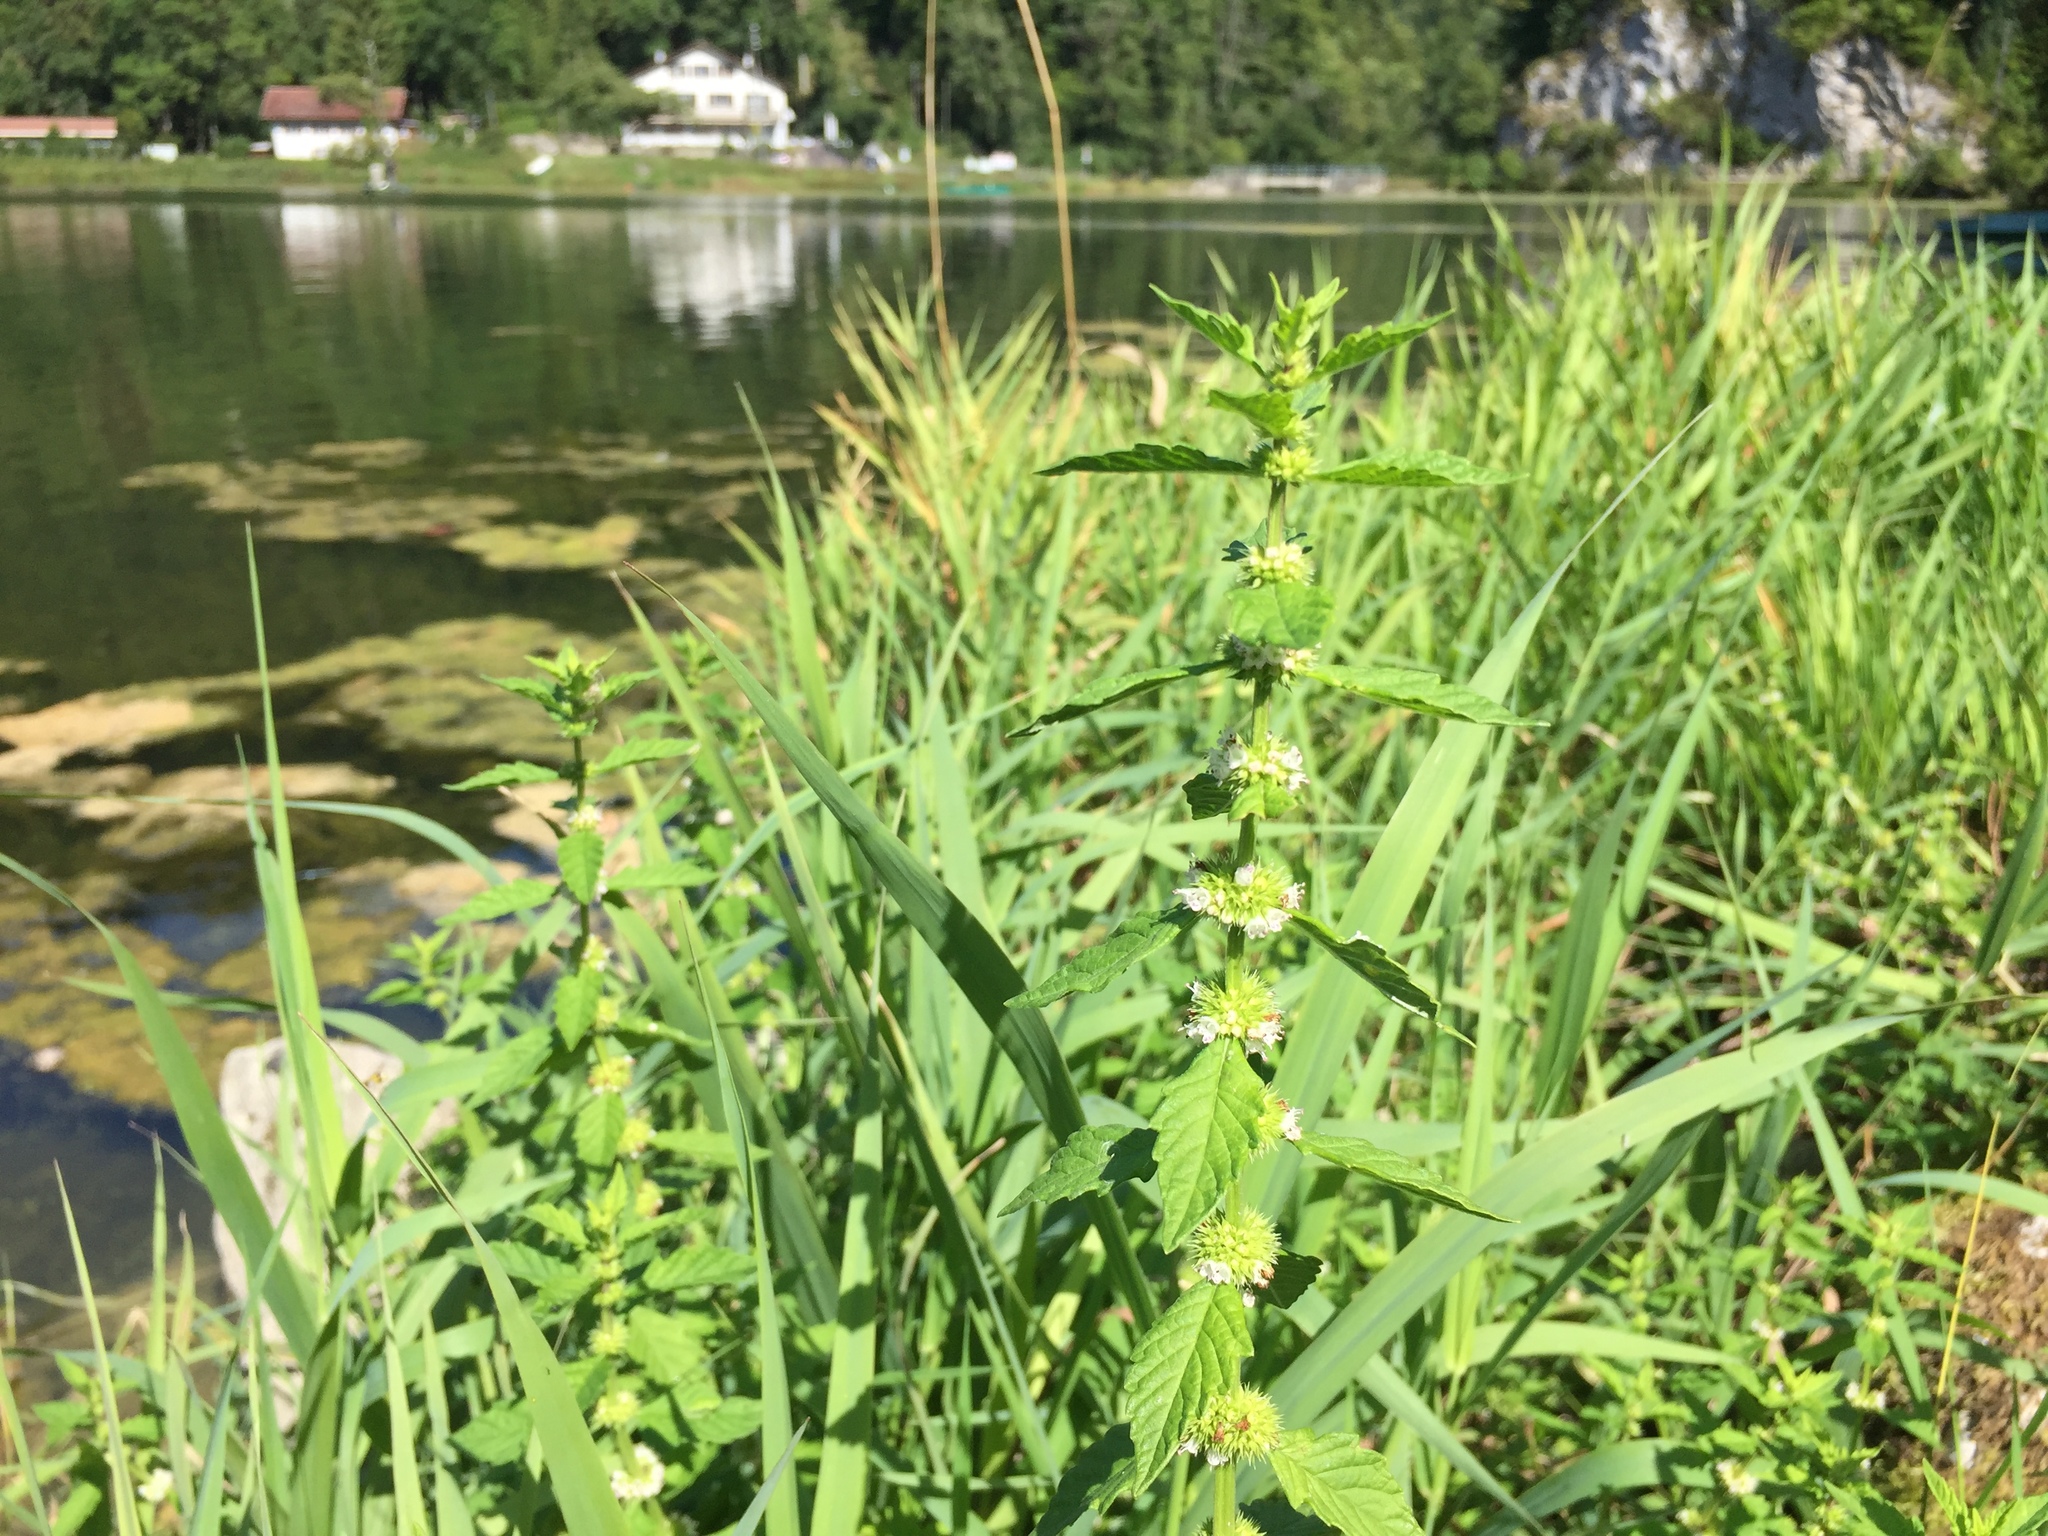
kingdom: Plantae
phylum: Tracheophyta
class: Magnoliopsida
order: Lamiales
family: Lamiaceae
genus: Lycopus
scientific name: Lycopus europaeus
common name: European bugleweed
